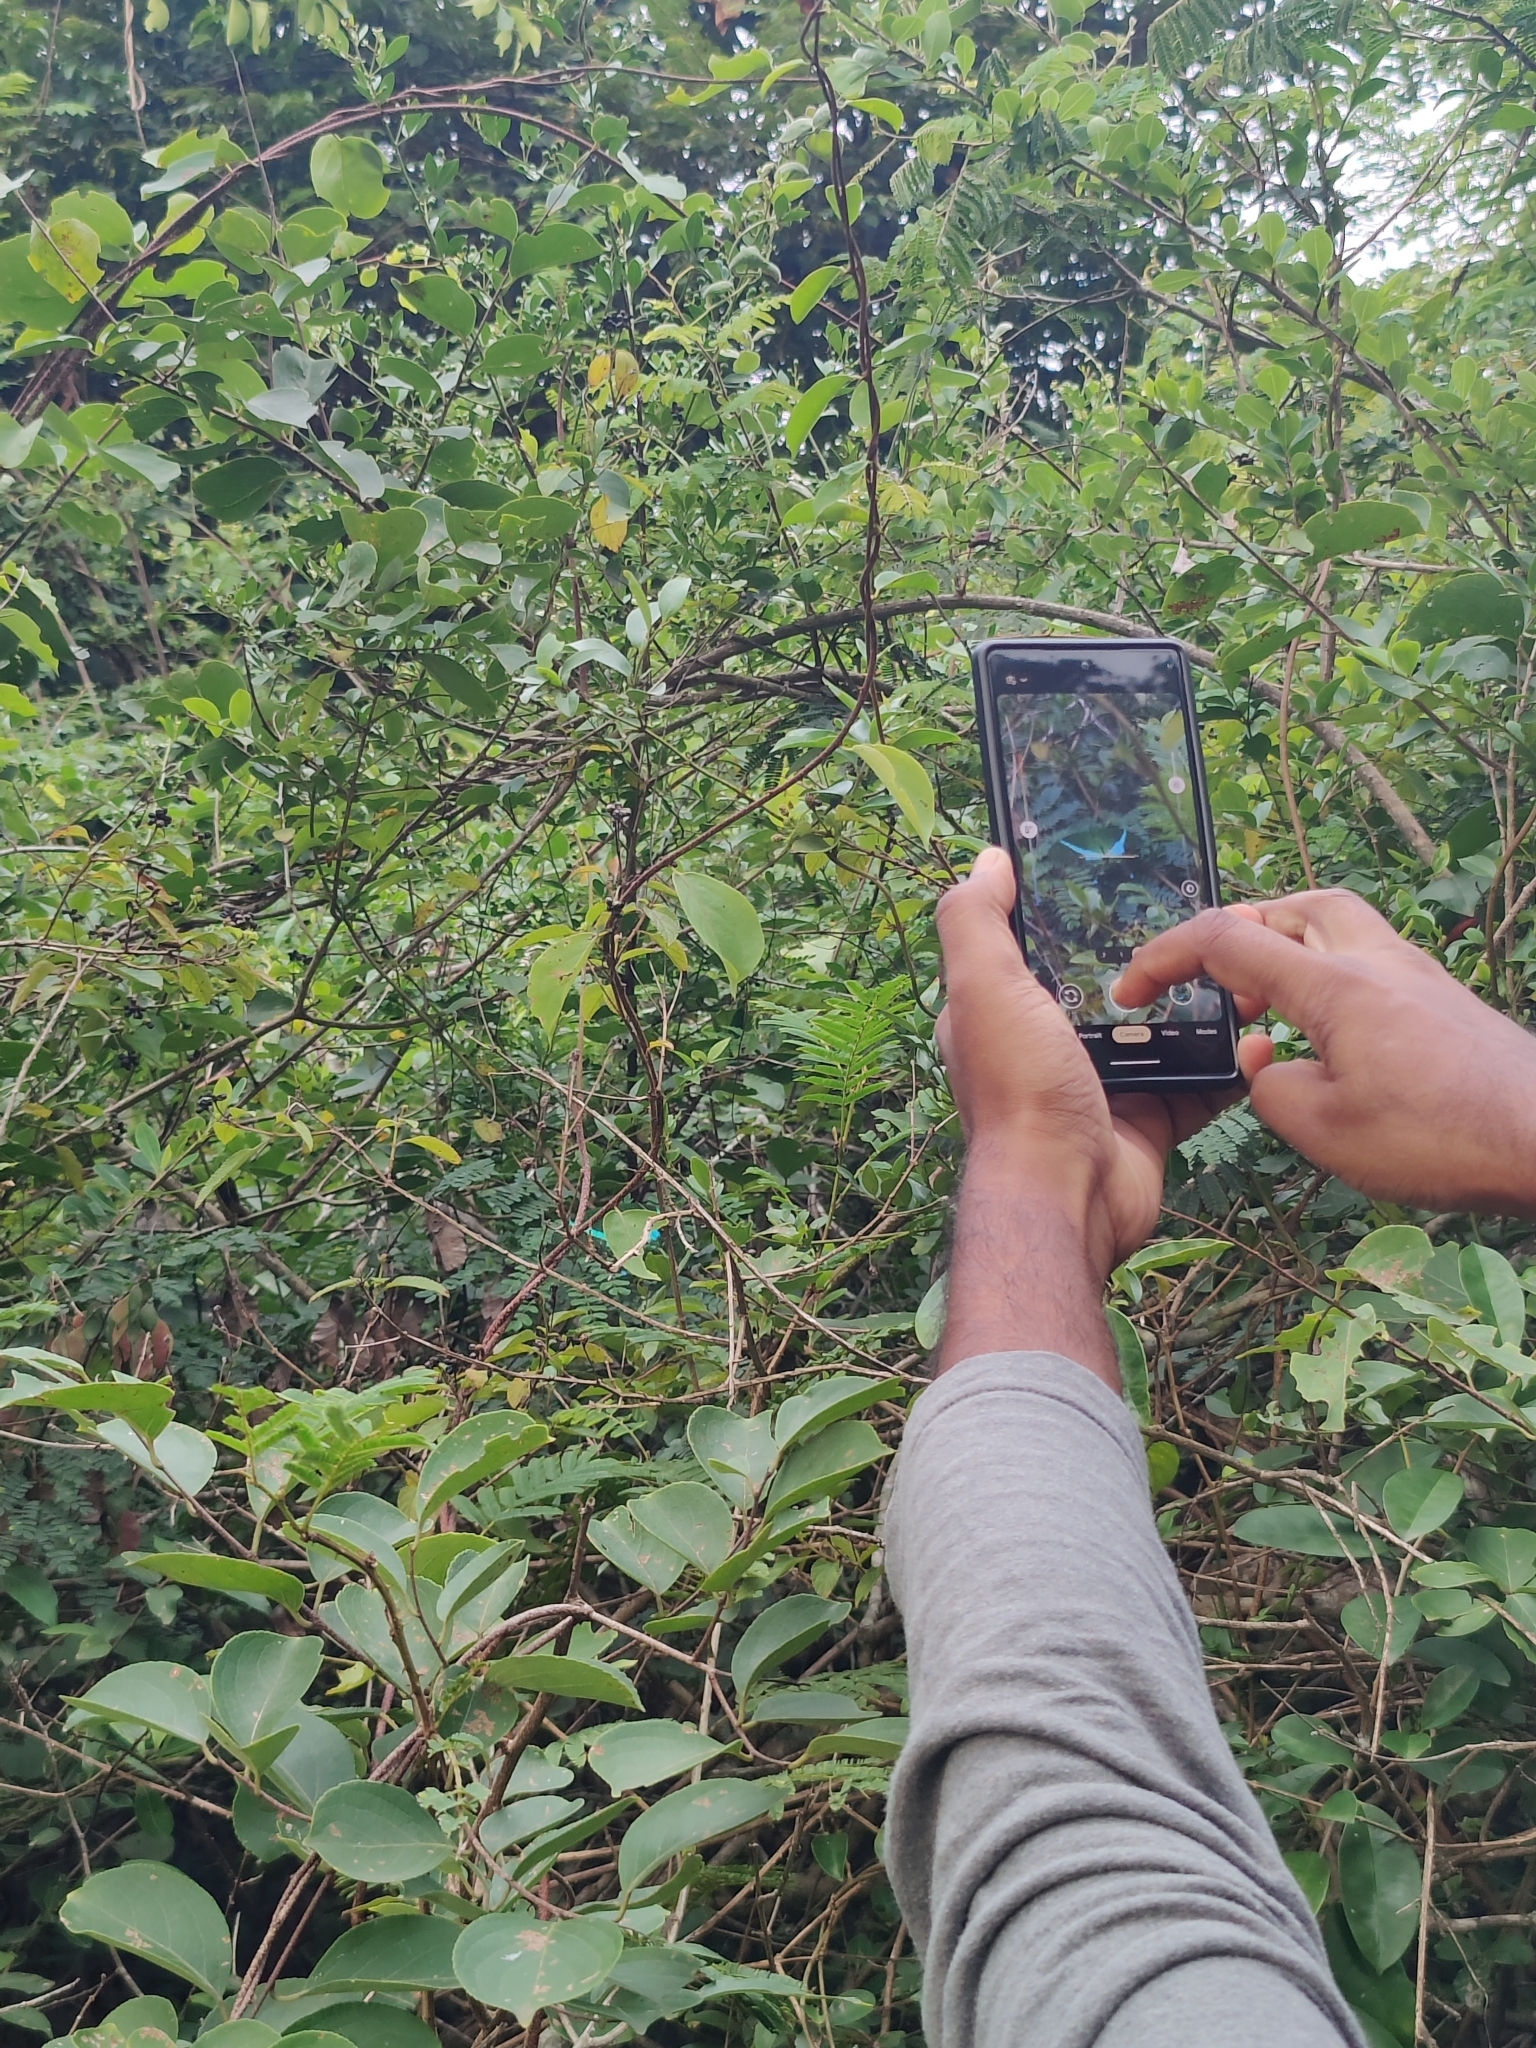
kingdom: Animalia
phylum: Arthropoda
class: Insecta
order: Lepidoptera
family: Papilionidae
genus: Papilio
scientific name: Papilio crino
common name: Common banded peacock
